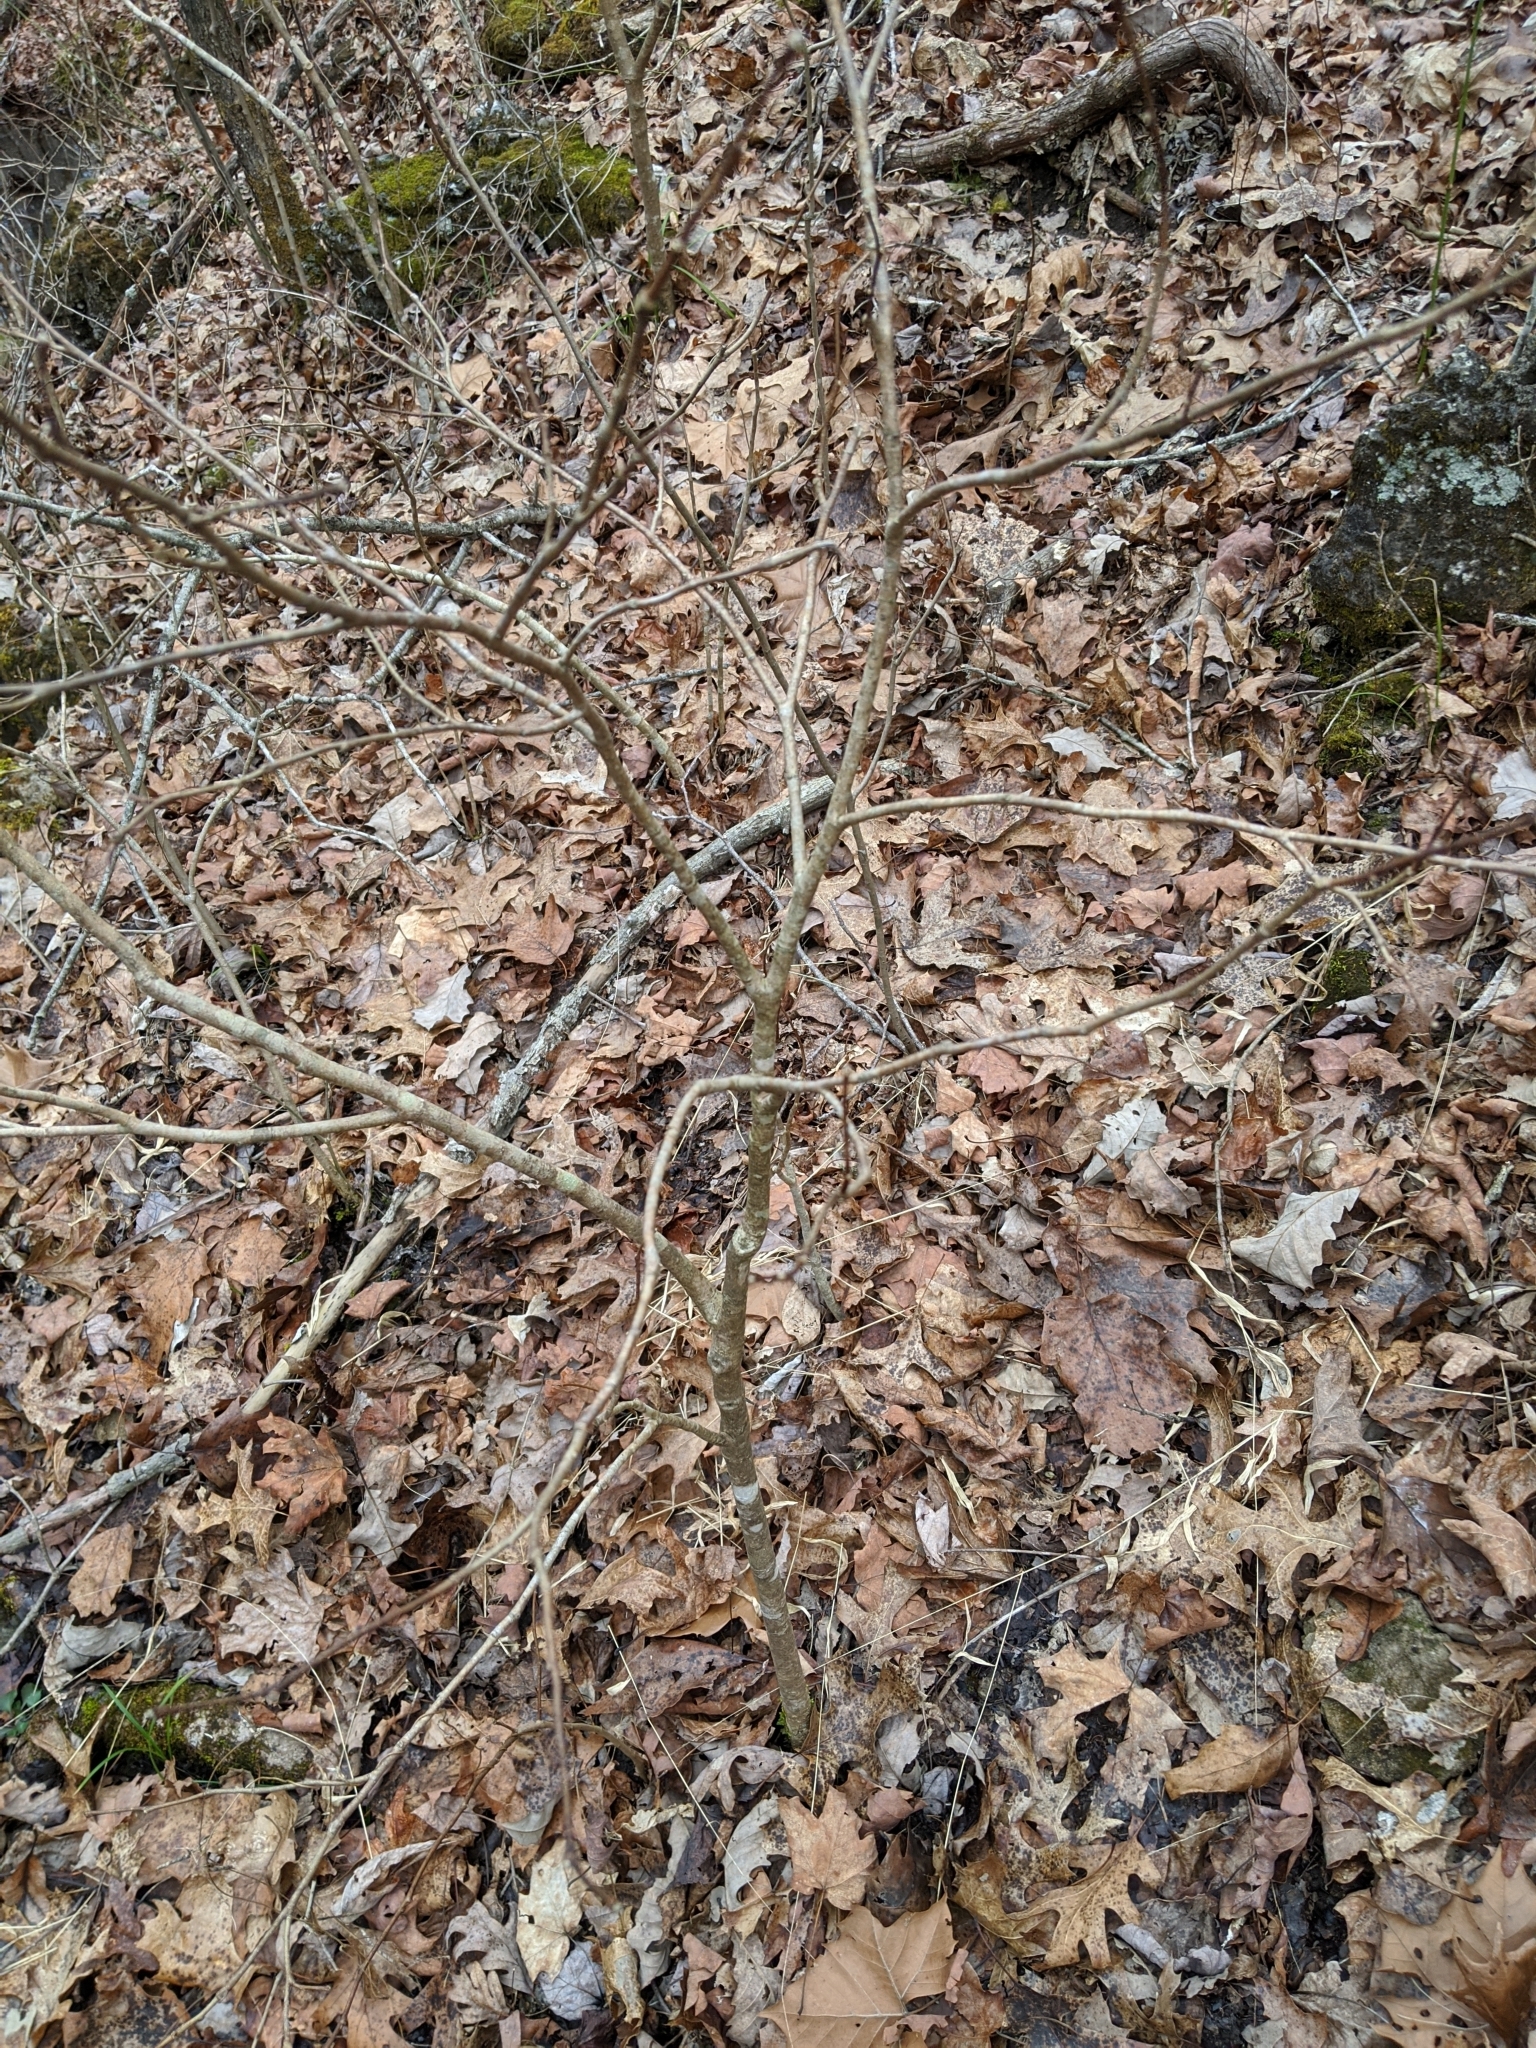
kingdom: Plantae
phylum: Tracheophyta
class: Magnoliopsida
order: Malvales
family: Thymelaeaceae
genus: Dirca
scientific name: Dirca palustris
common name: Leatherwood
